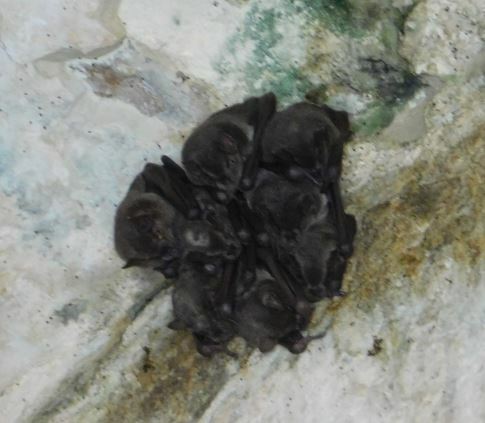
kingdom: Animalia
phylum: Chordata
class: Mammalia
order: Chiroptera
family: Phyllostomidae
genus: Artibeus
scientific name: Artibeus jamaicensis
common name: Jamaican fruit-eating bat
